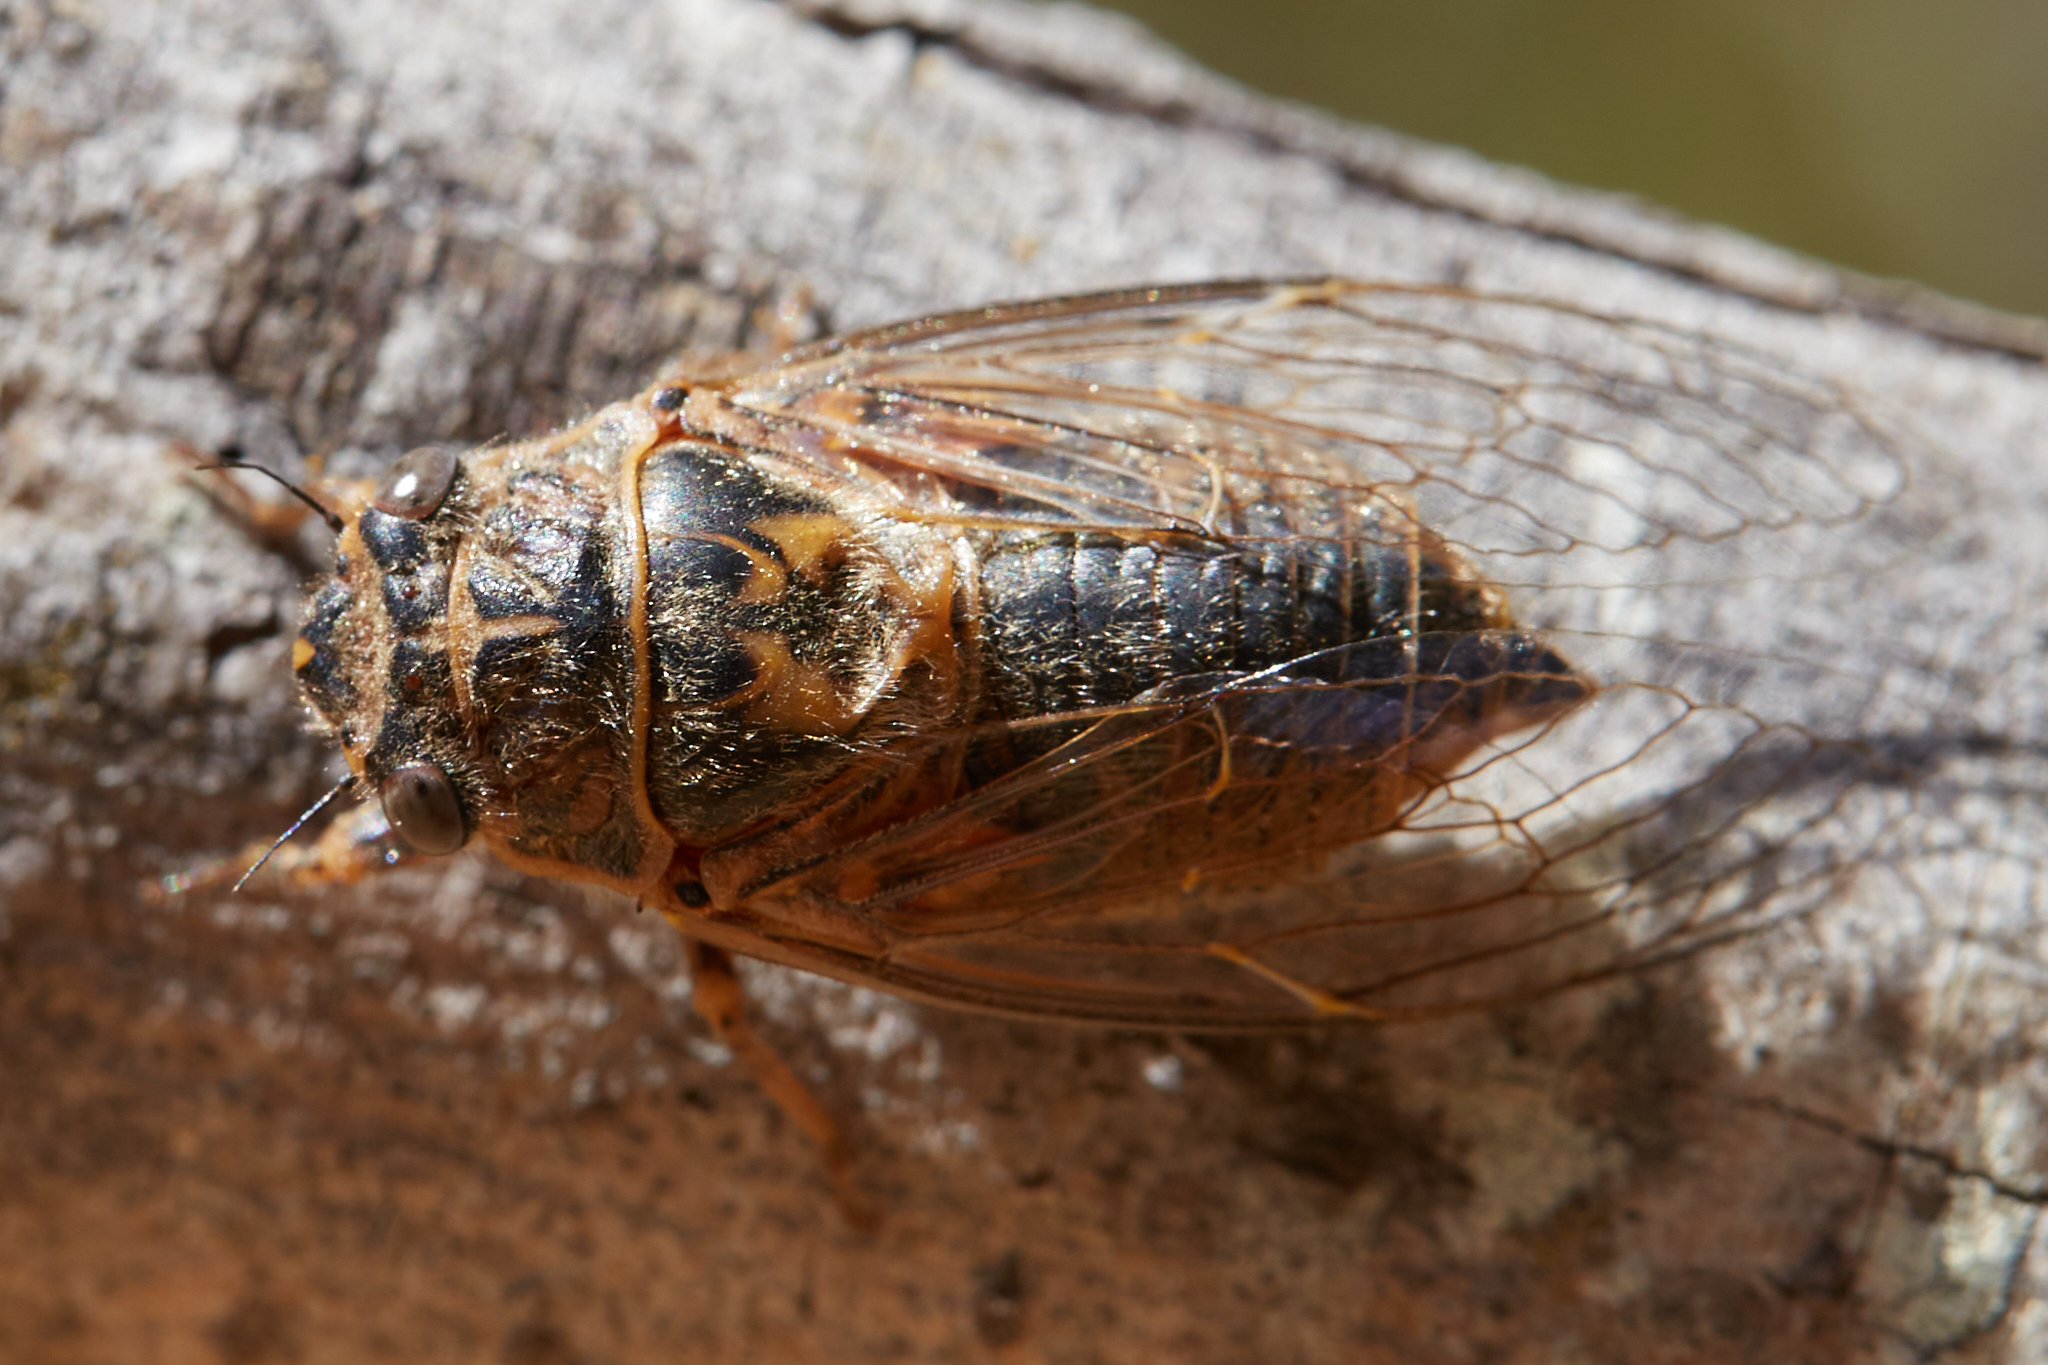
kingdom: Animalia
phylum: Arthropoda
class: Insecta
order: Hemiptera
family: Cicadidae
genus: Tibicinoides
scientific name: Tibicinoides
